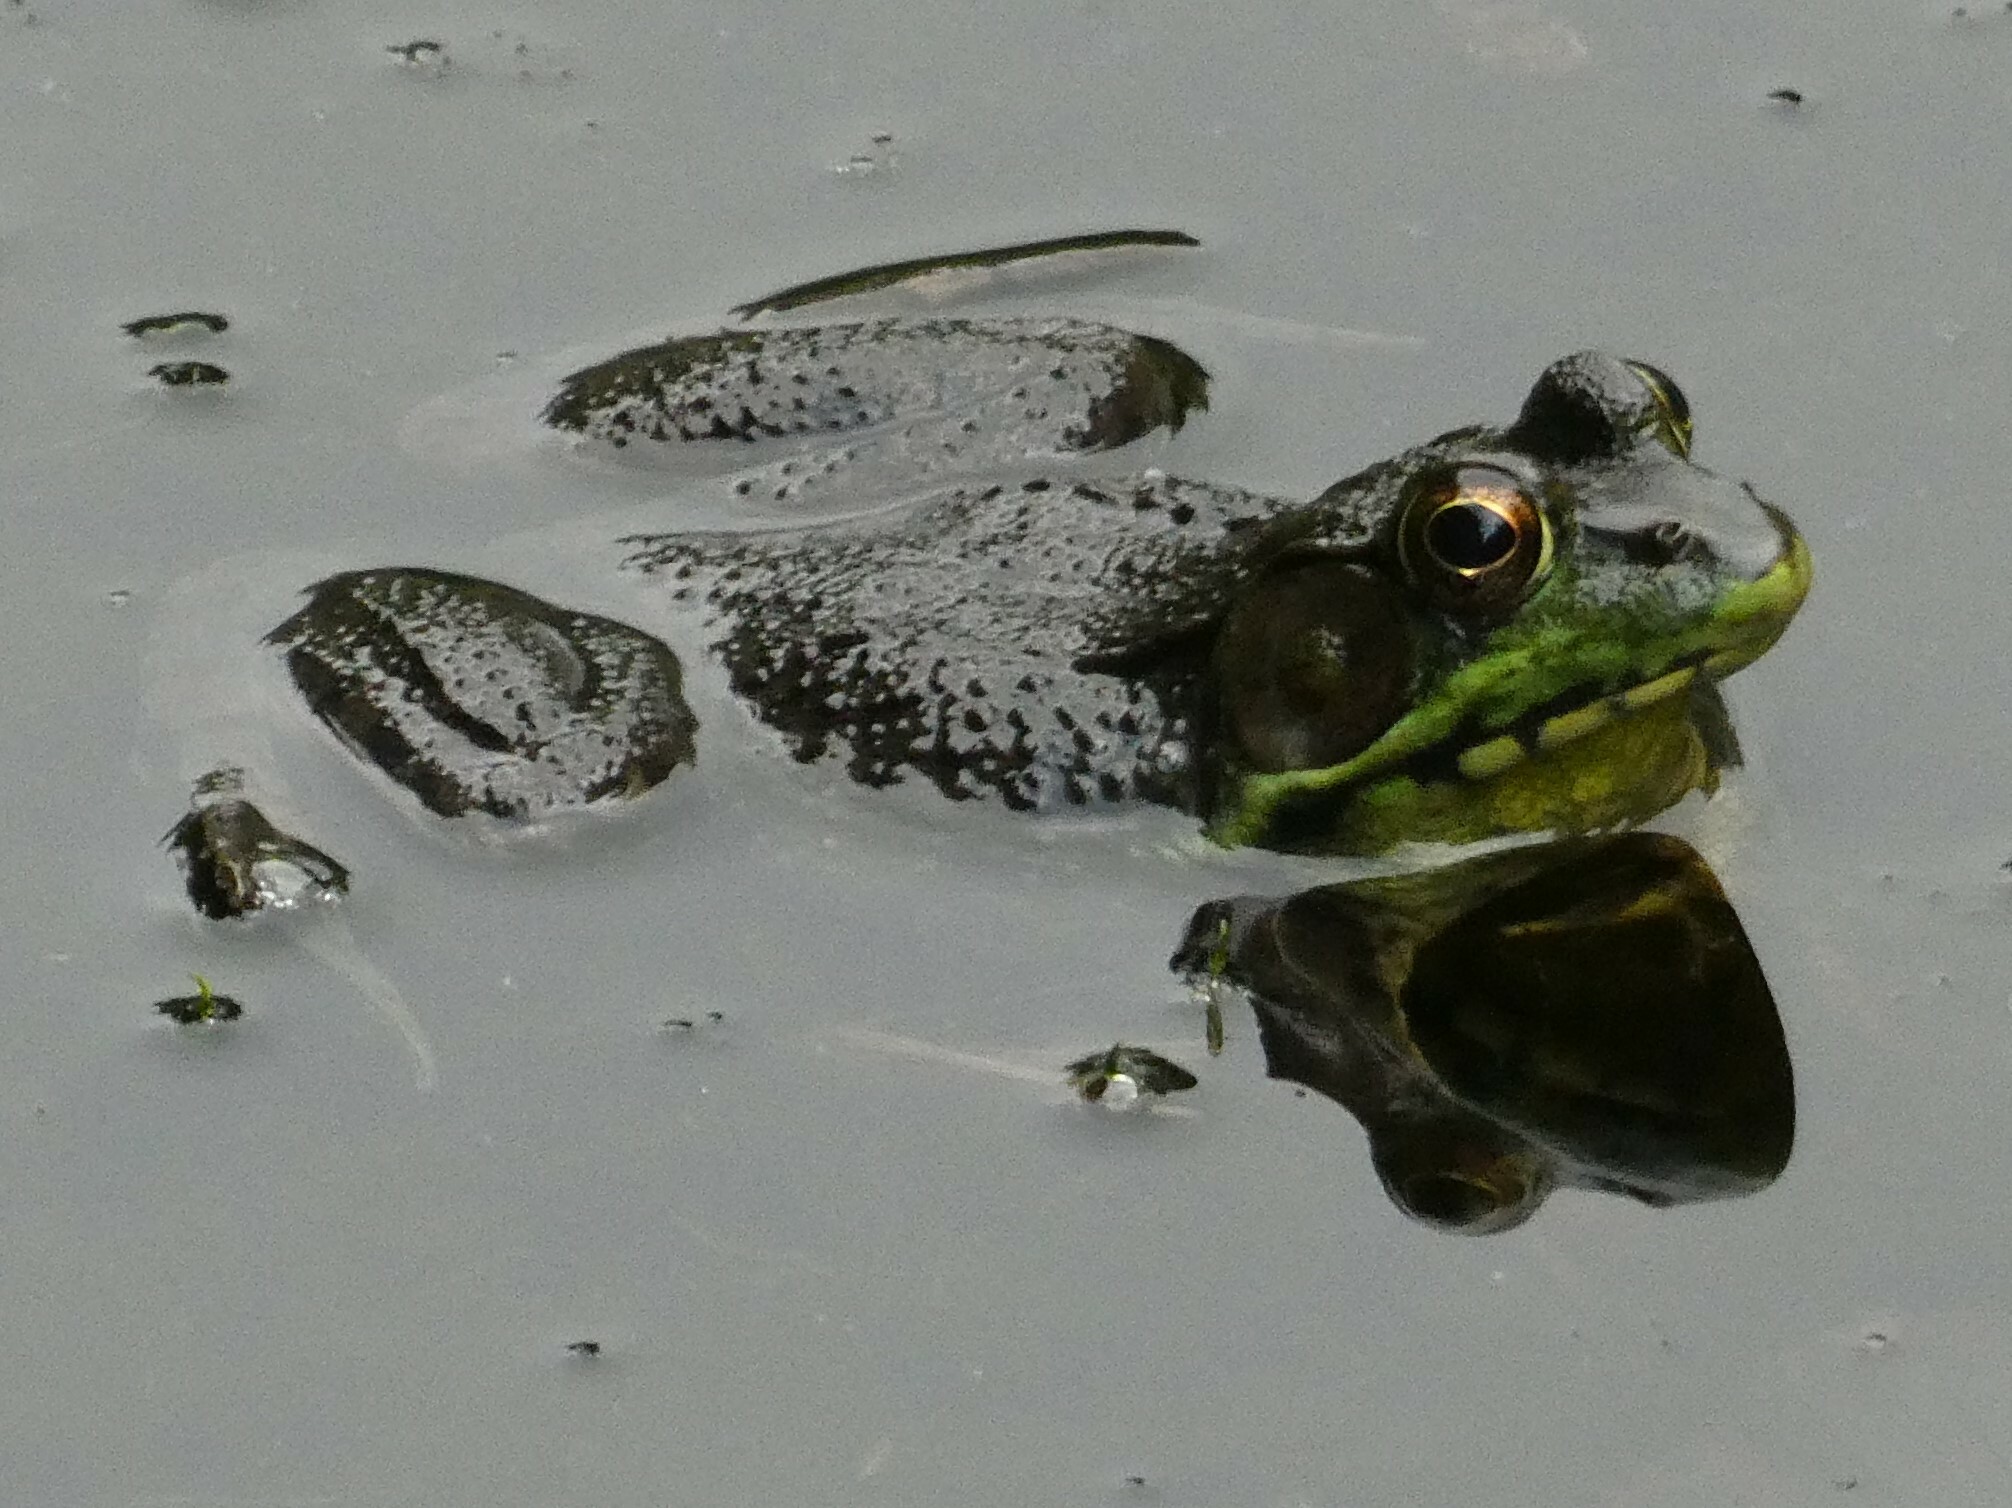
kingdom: Animalia
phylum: Chordata
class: Amphibia
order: Anura
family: Ranidae
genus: Lithobates
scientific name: Lithobates clamitans
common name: Green frog
